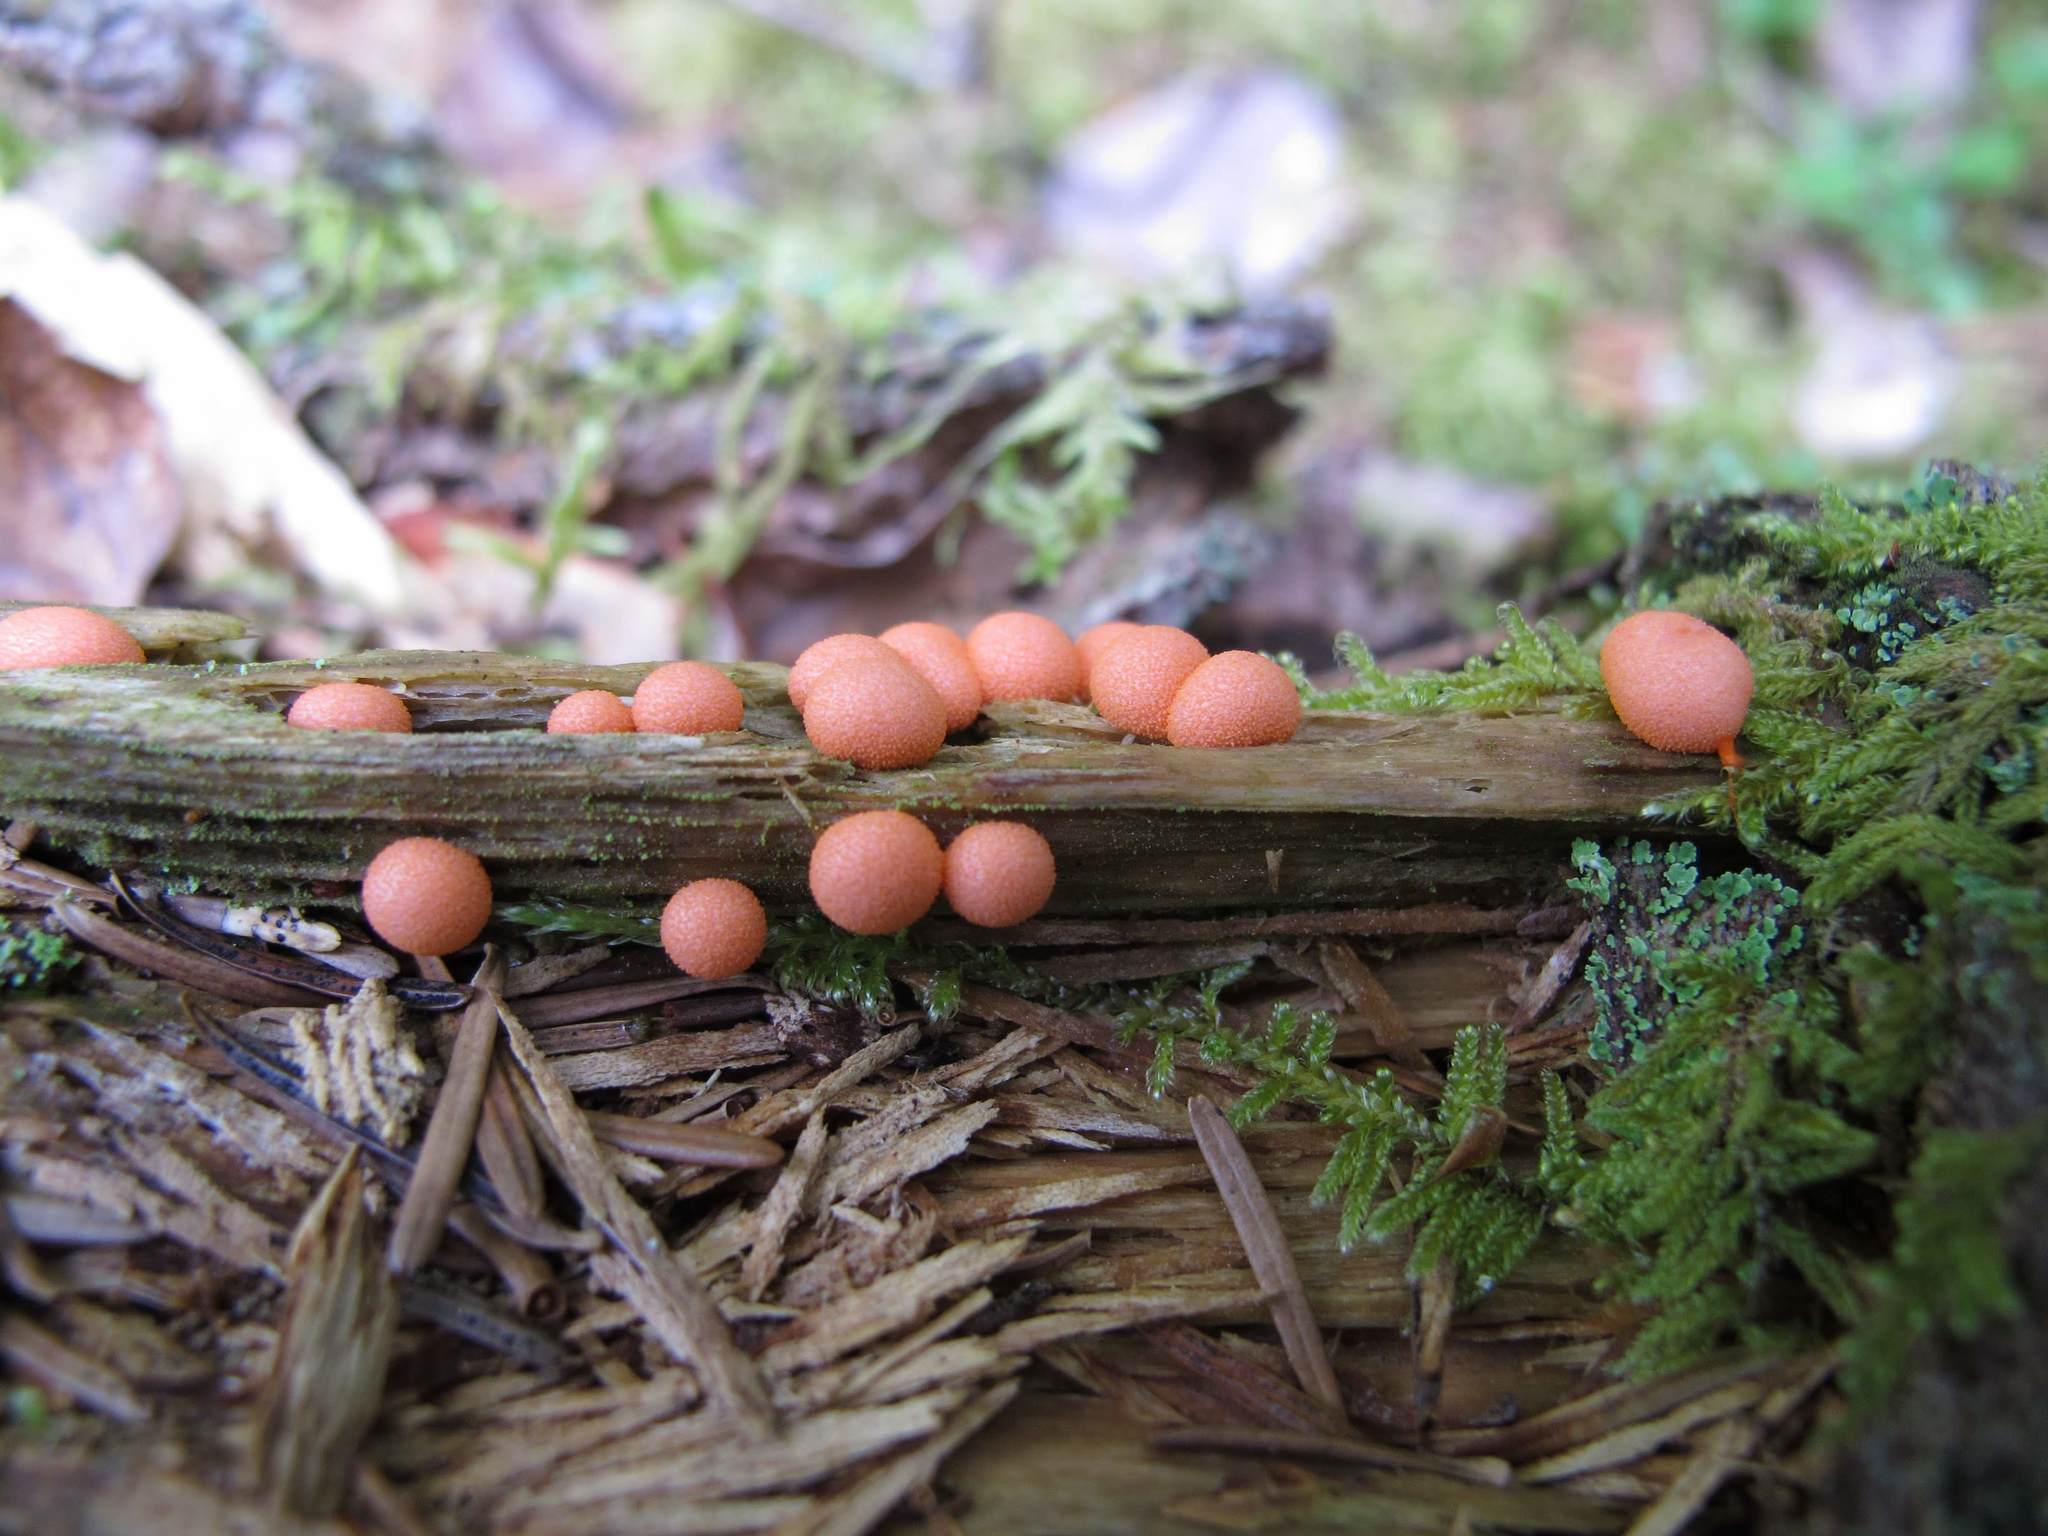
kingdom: Protozoa
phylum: Mycetozoa
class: Myxomycetes
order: Cribrariales
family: Tubiferaceae
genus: Lycogala
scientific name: Lycogala epidendrum
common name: Wolf's milk
